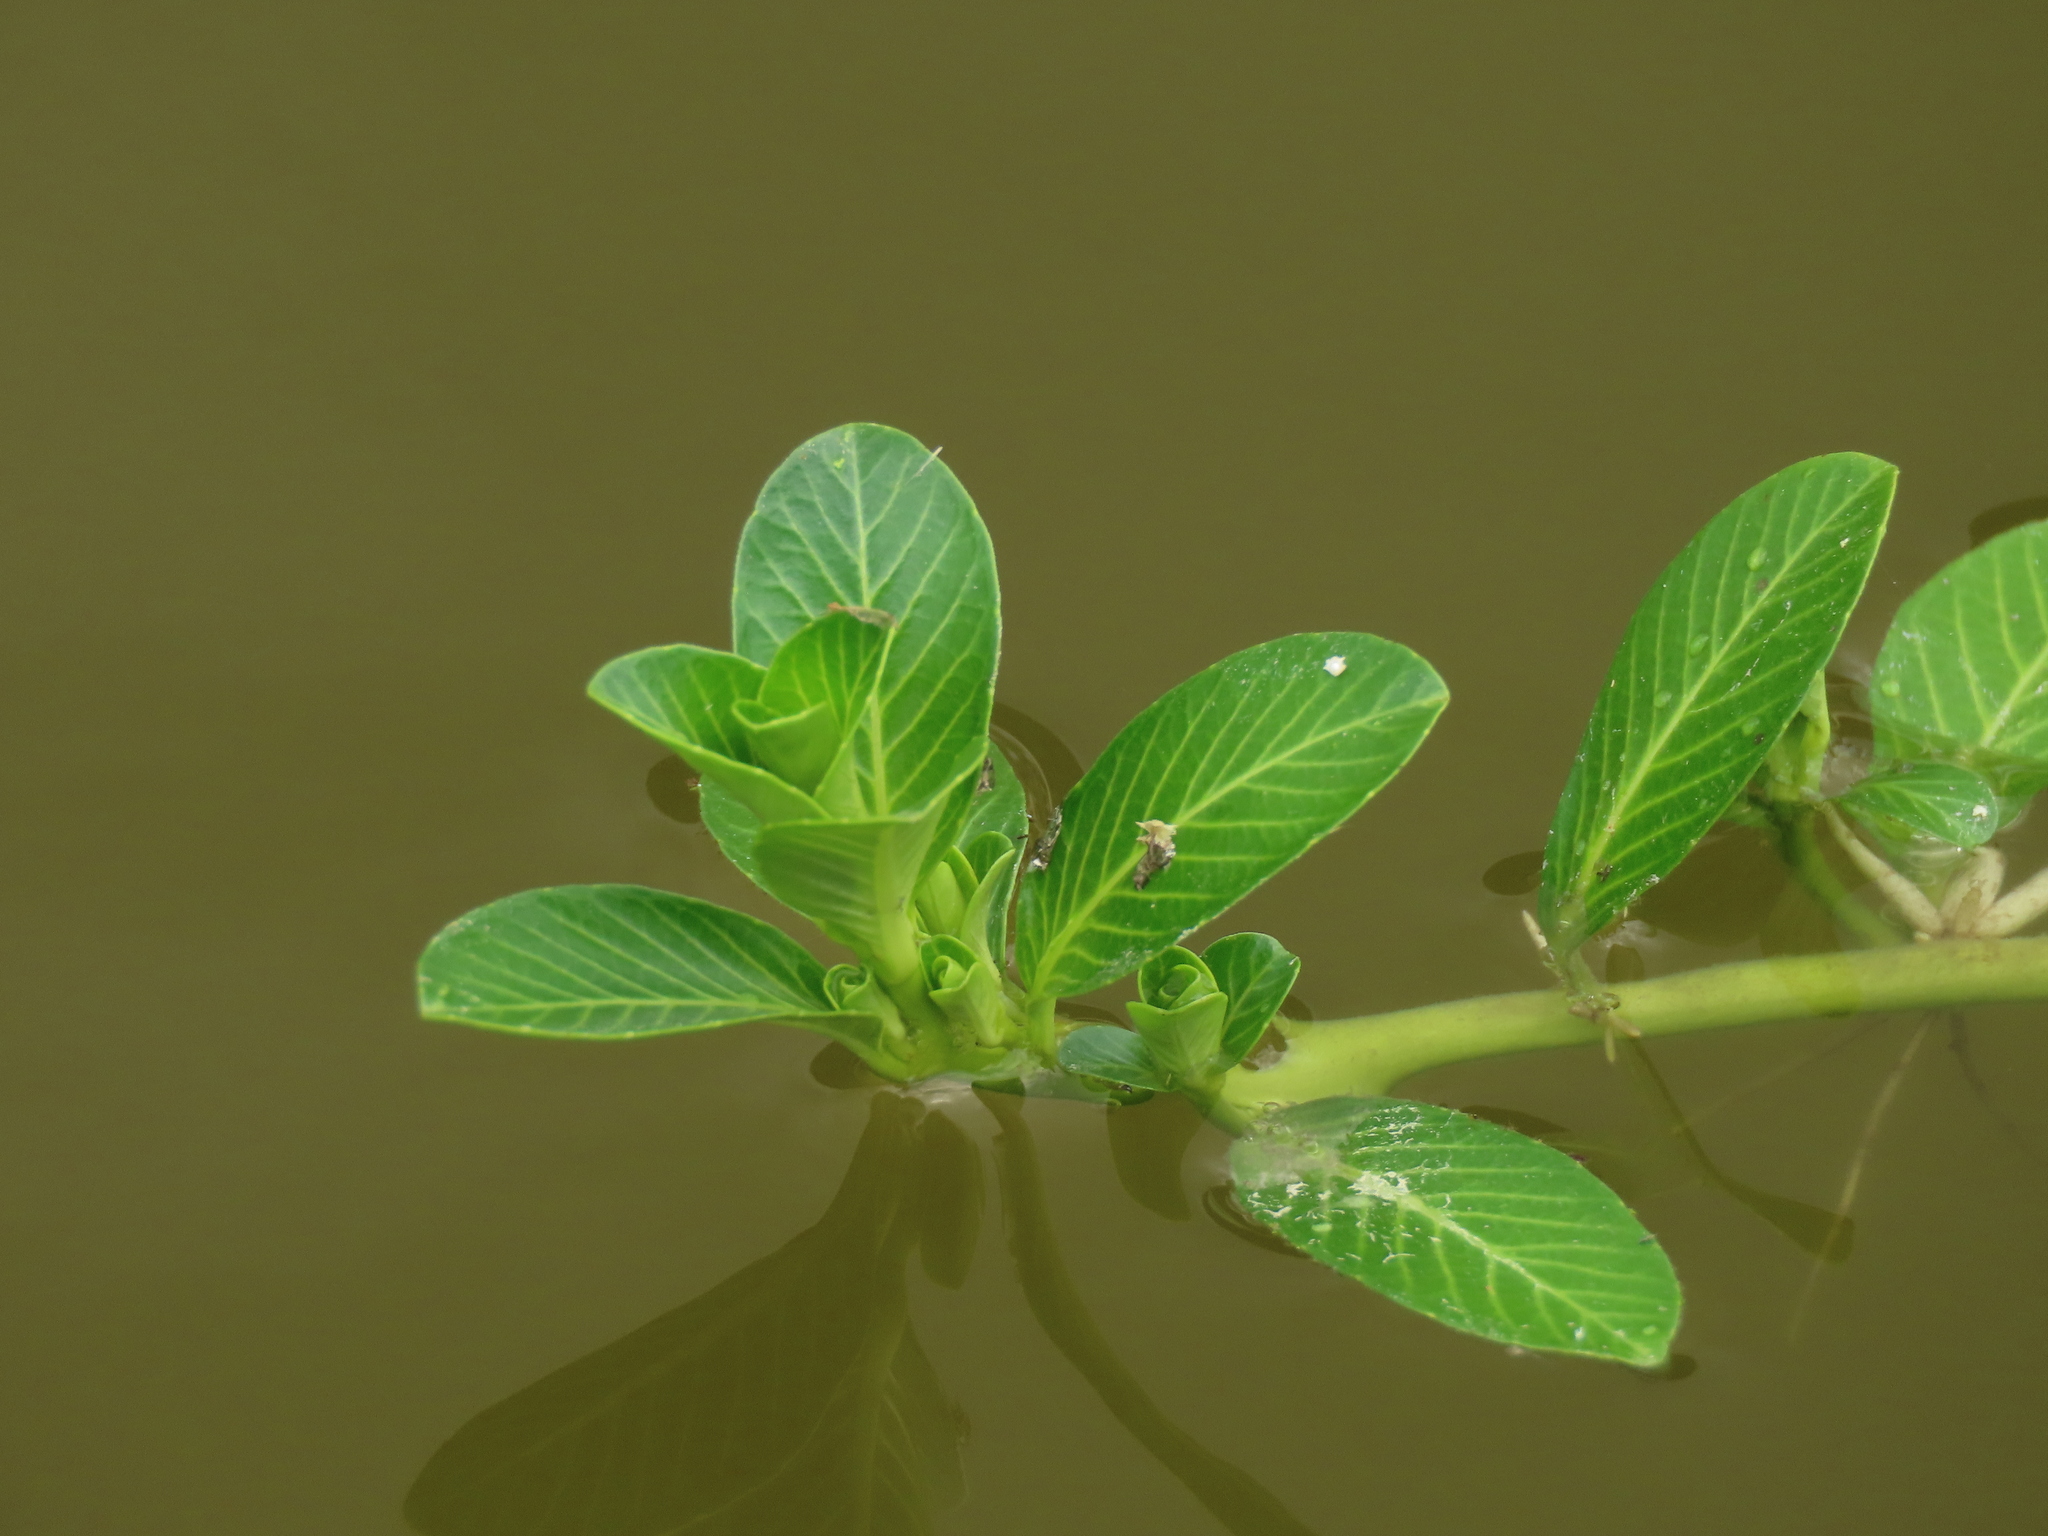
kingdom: Plantae
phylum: Tracheophyta
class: Magnoliopsida
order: Myrtales
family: Onagraceae
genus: Ludwigia
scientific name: Ludwigia adscendens
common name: Creeping water primrose
